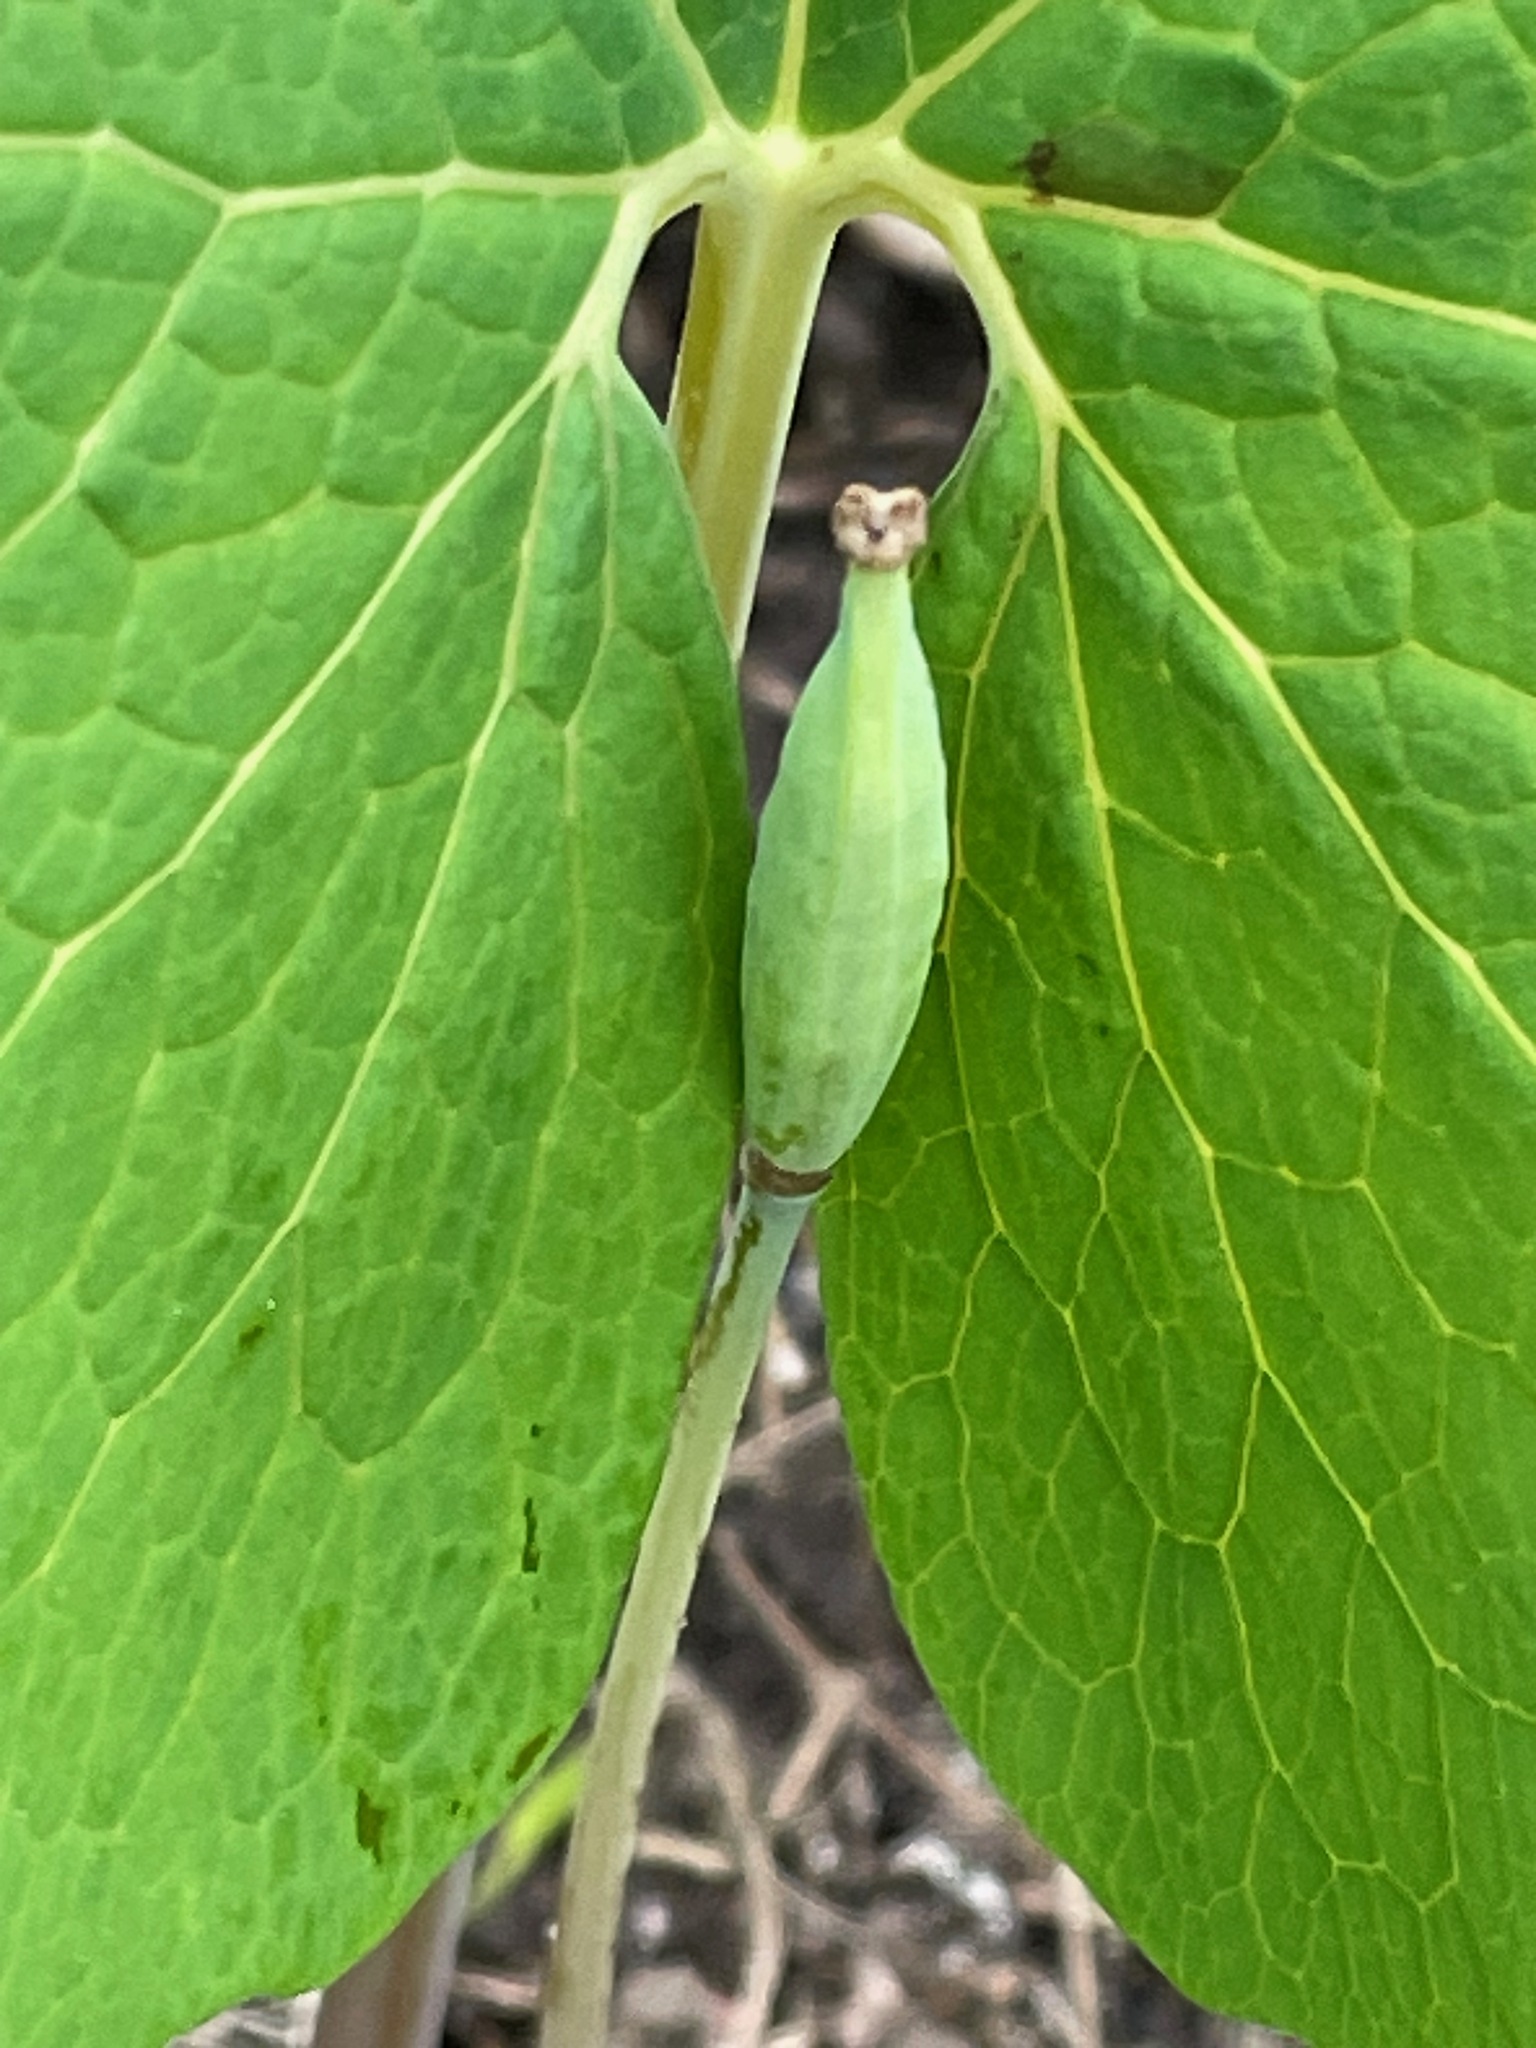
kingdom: Plantae
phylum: Tracheophyta
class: Magnoliopsida
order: Ranunculales
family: Papaveraceae
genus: Sanguinaria
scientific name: Sanguinaria canadensis
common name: Bloodroot
